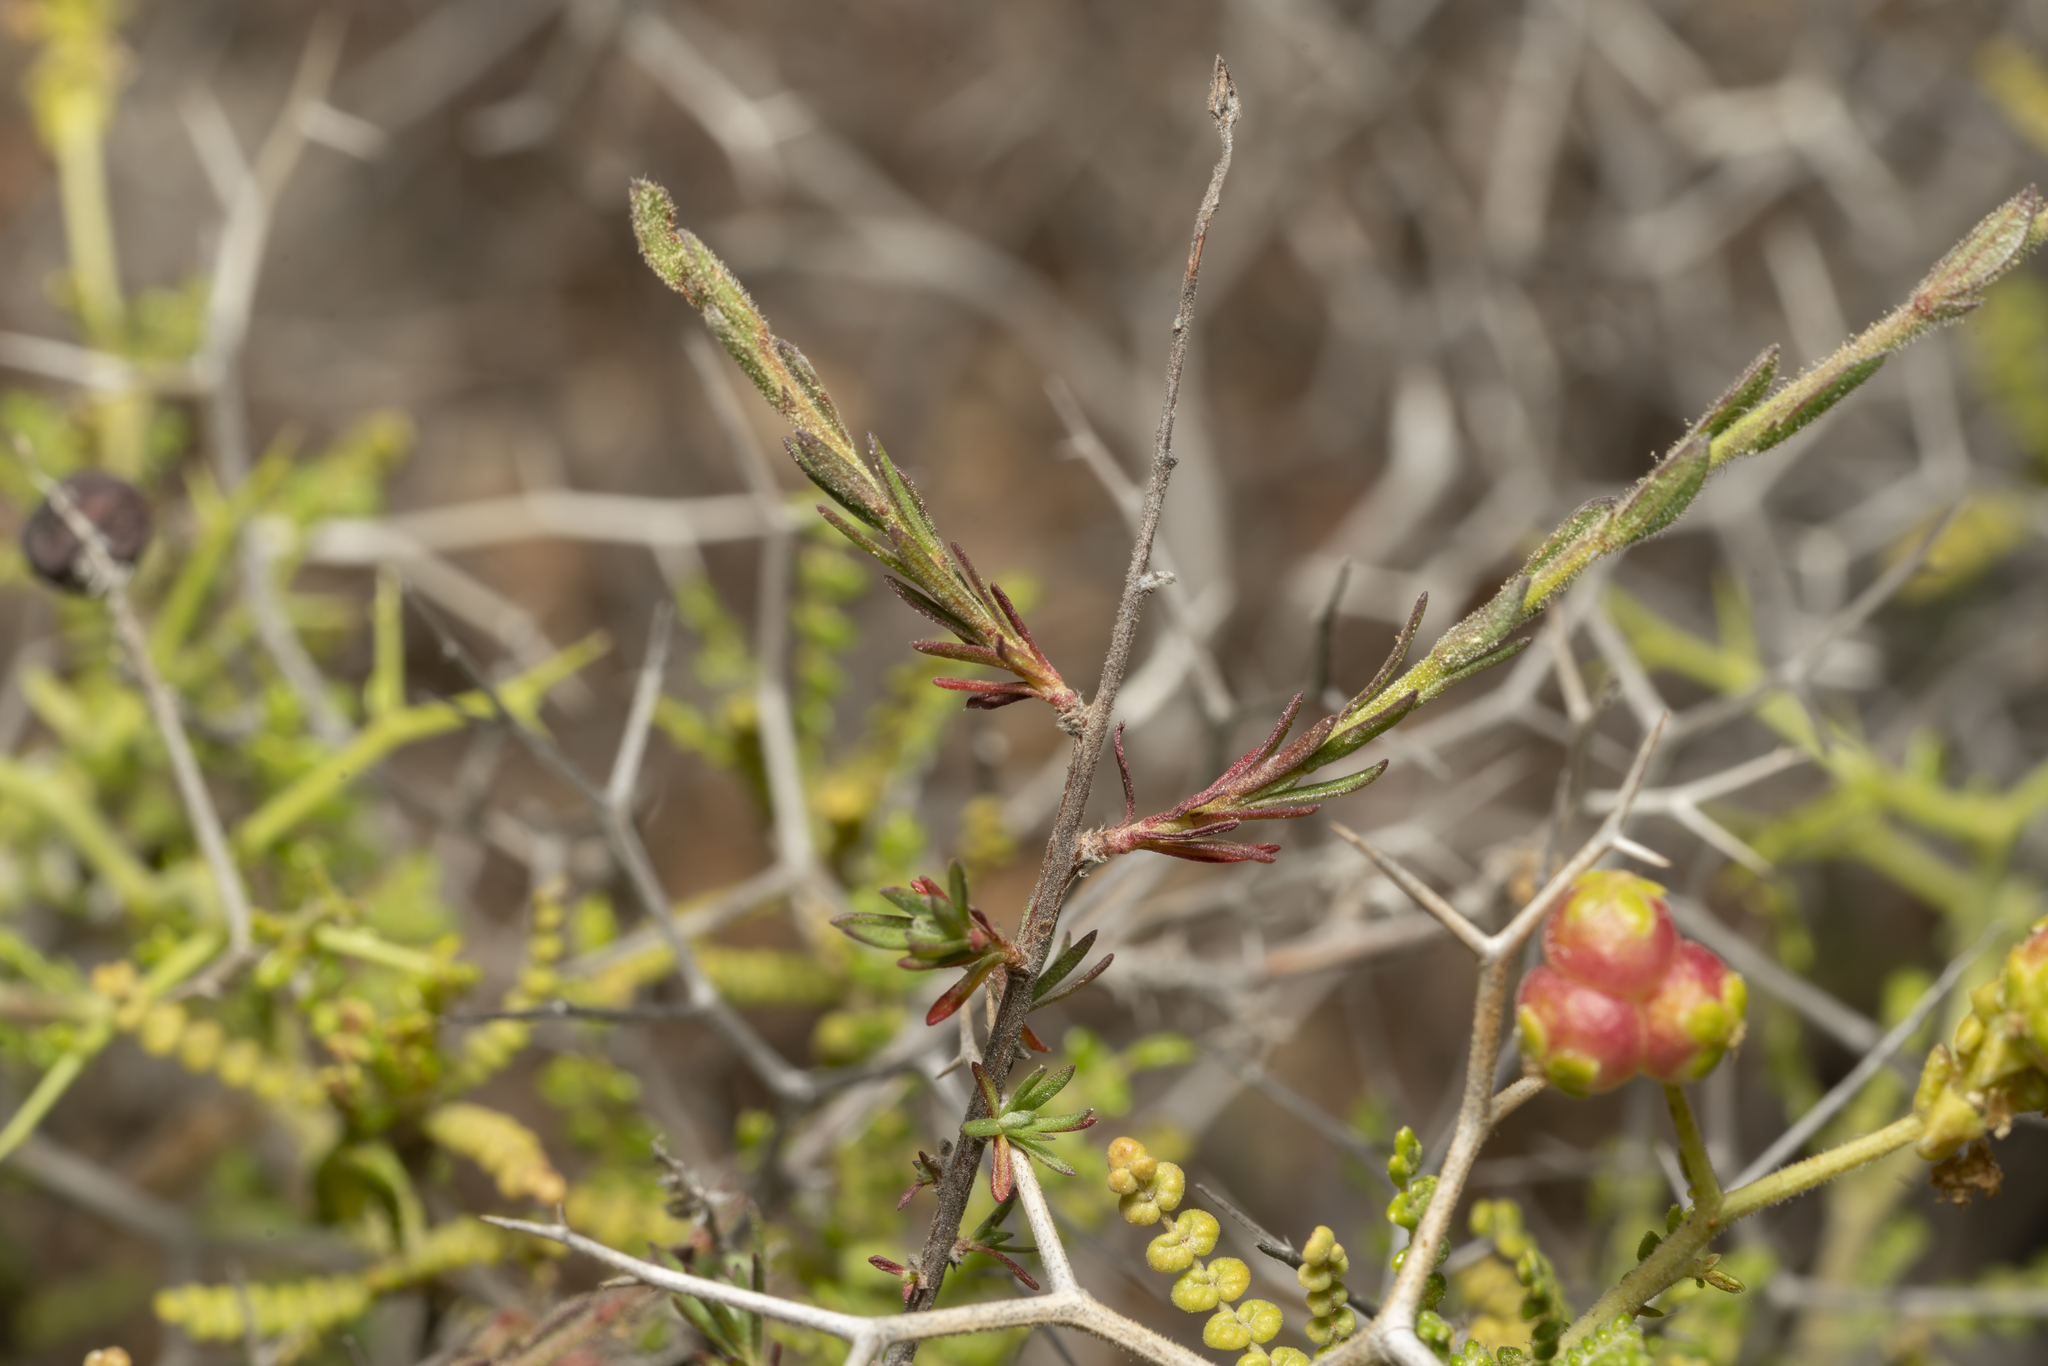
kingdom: Plantae
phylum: Tracheophyta
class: Magnoliopsida
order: Malvales
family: Cistaceae
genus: Fumana
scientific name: Fumana arabica
